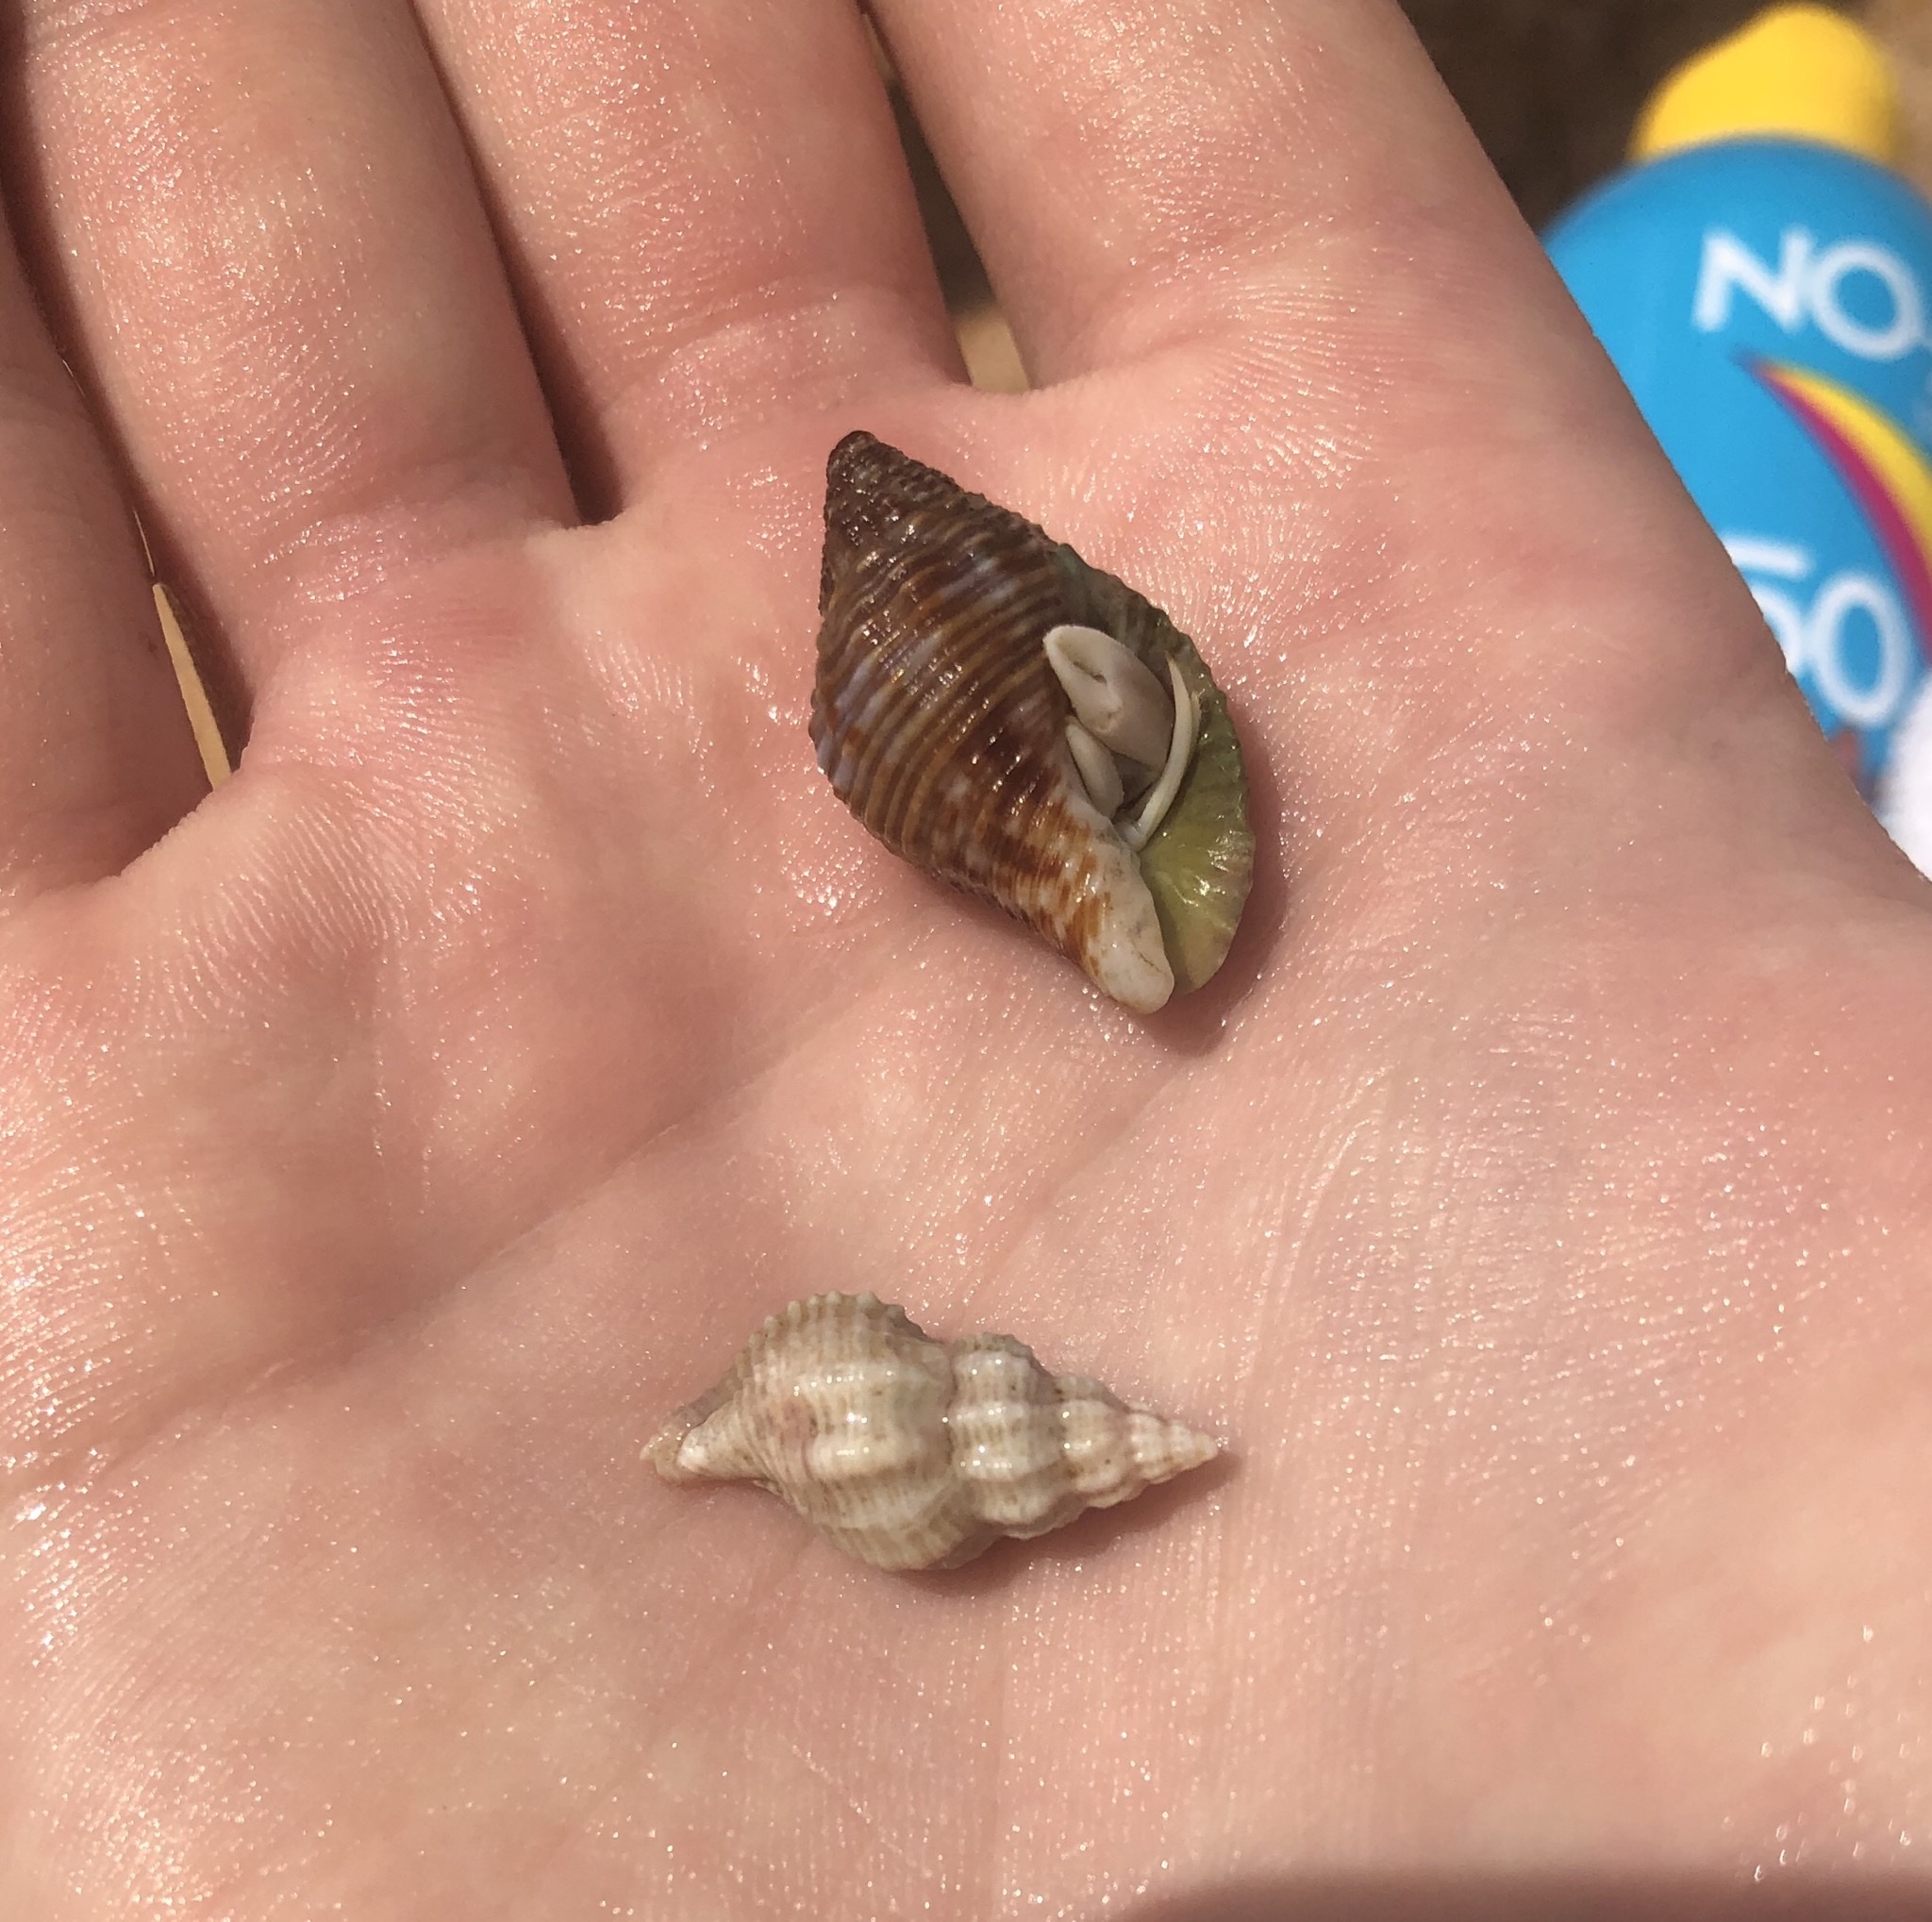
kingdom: Animalia
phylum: Mollusca
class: Gastropoda
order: Neogastropoda
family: Pisaniidae
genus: Gemophos
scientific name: Gemophos tinctus
